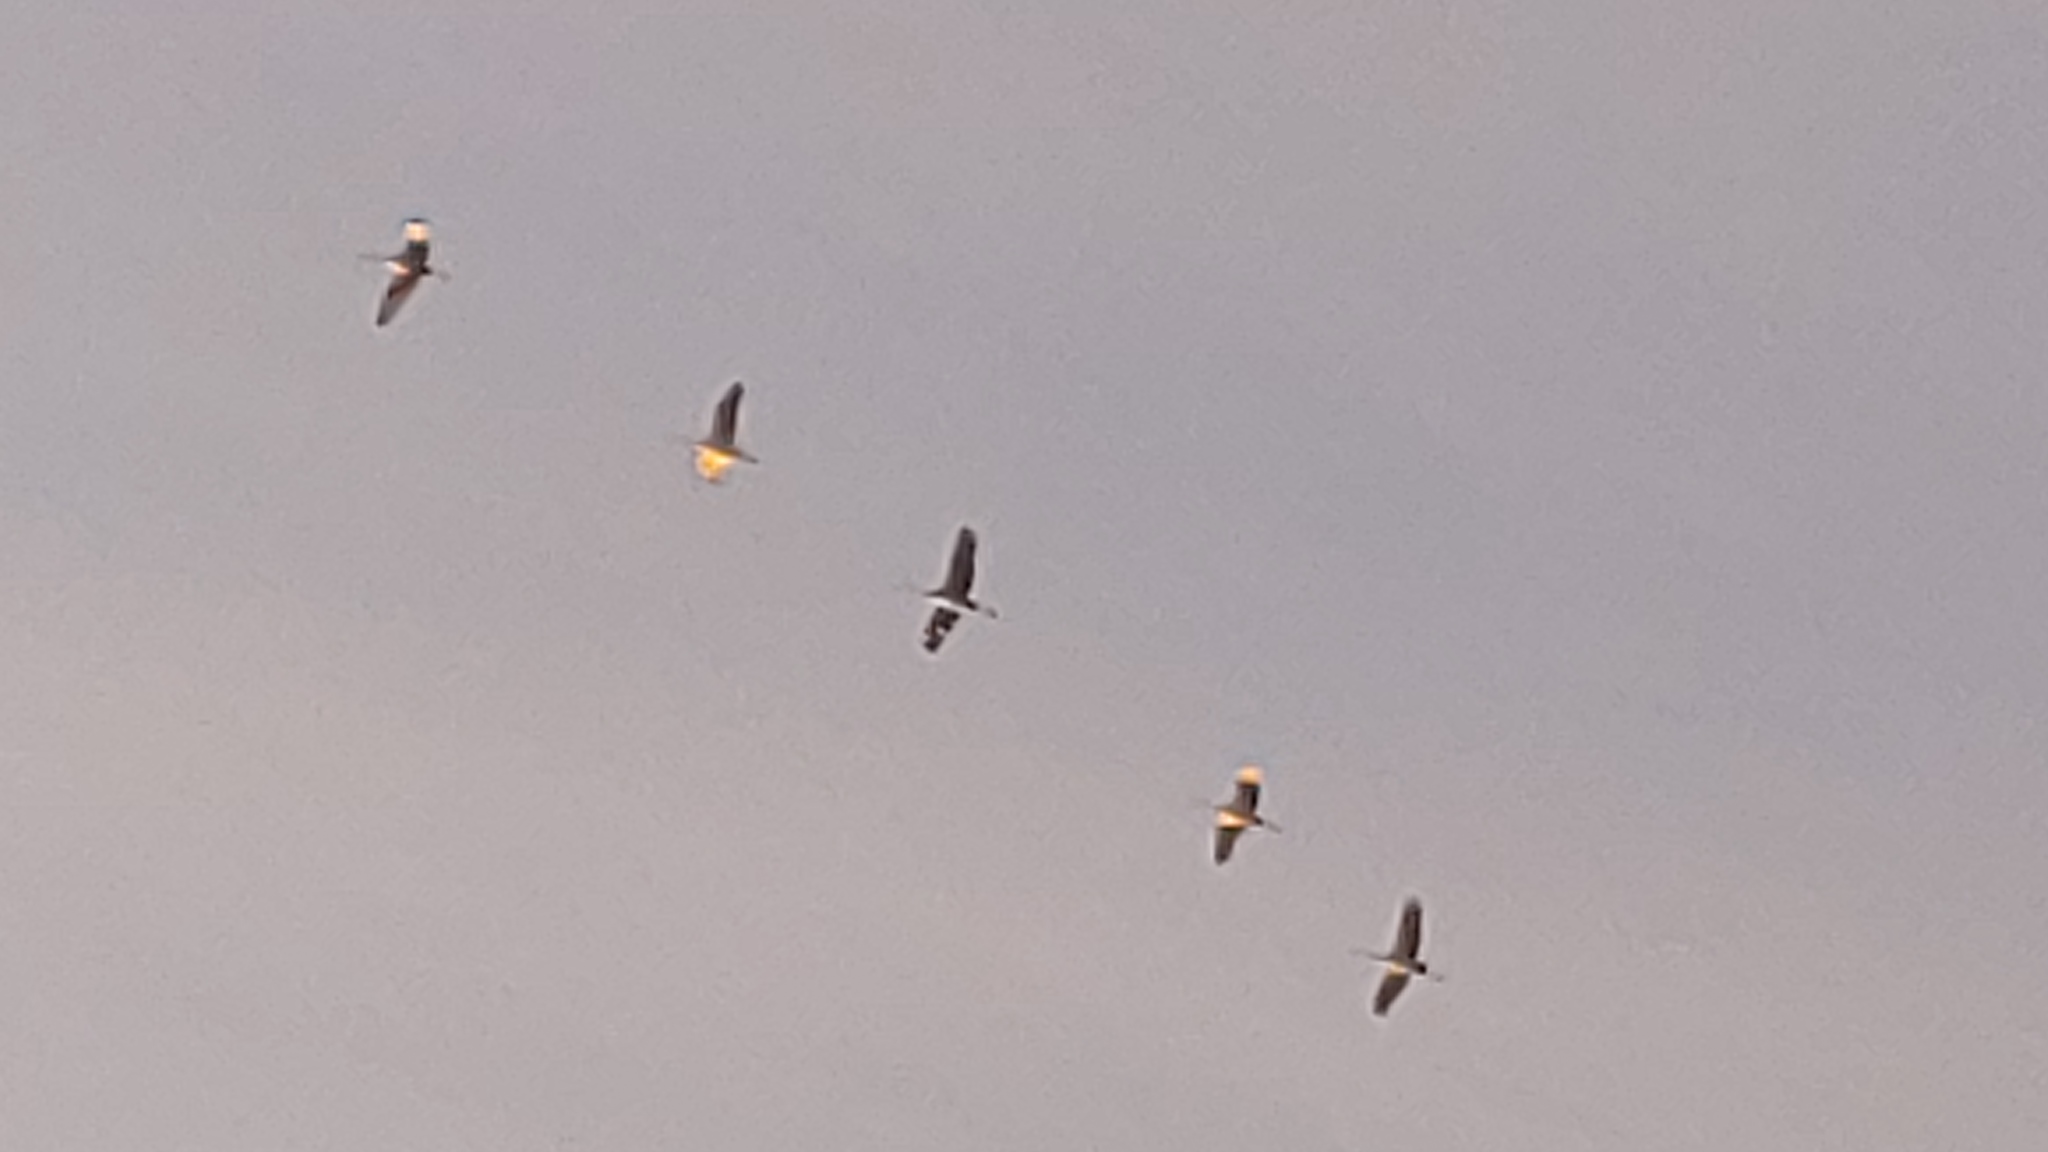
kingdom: Animalia
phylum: Chordata
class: Aves
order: Gruiformes
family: Gruidae
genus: Grus
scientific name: Grus canadensis
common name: Sandhill crane
